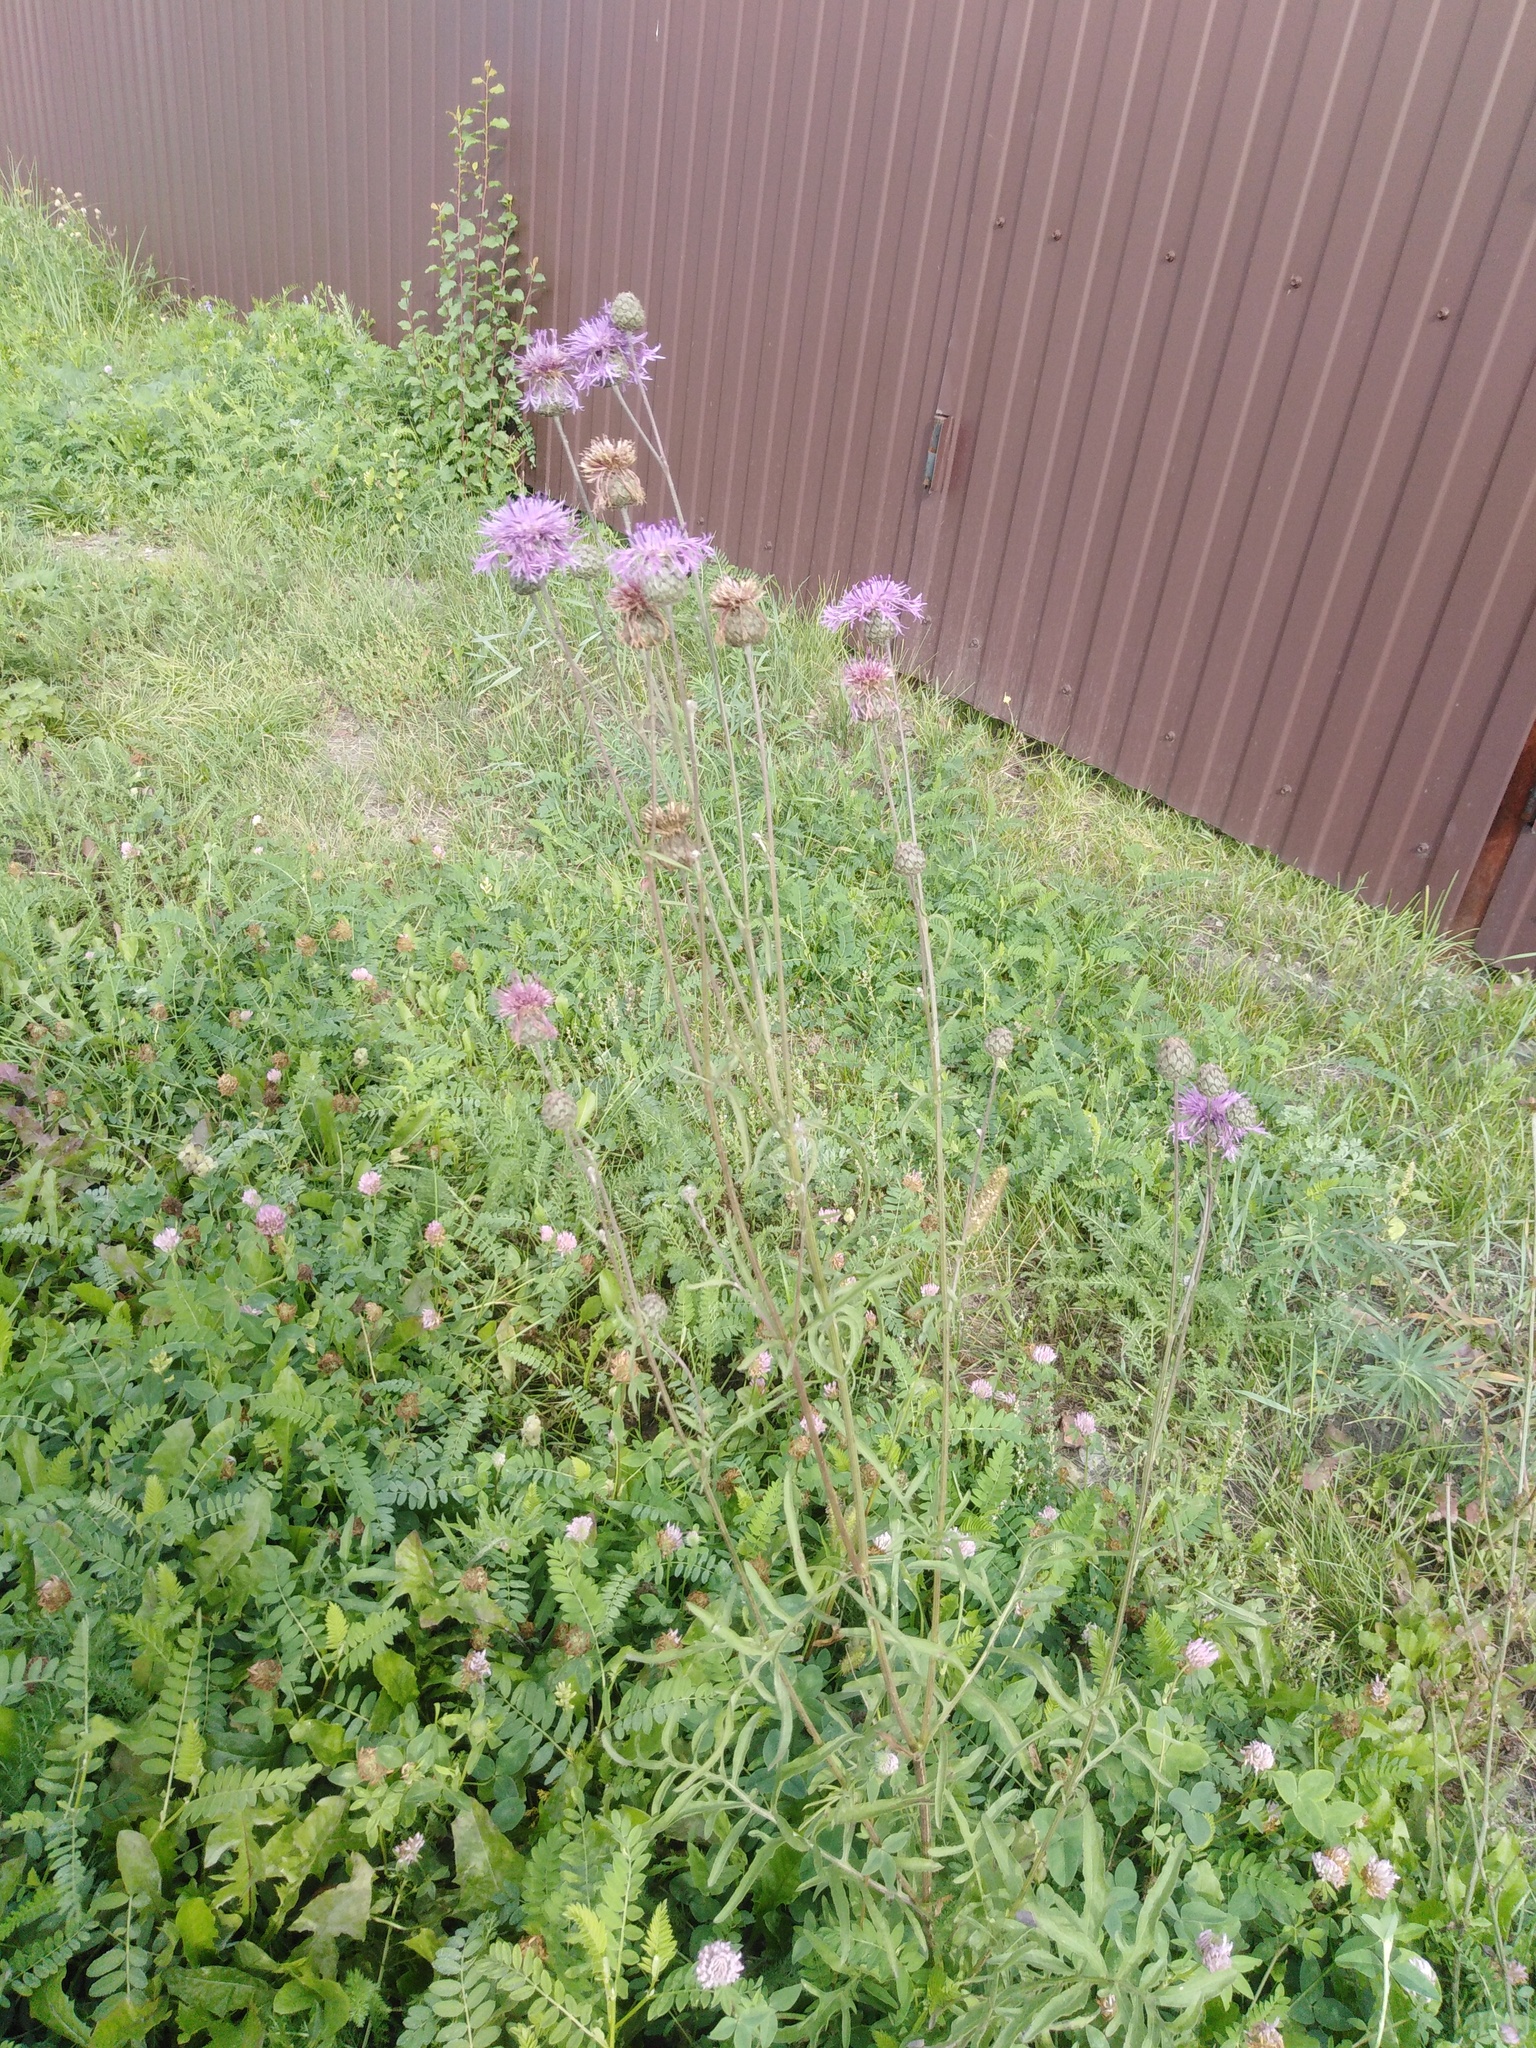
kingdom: Plantae
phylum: Tracheophyta
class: Magnoliopsida
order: Asterales
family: Asteraceae
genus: Centaurea
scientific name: Centaurea scabiosa
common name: Greater knapweed
